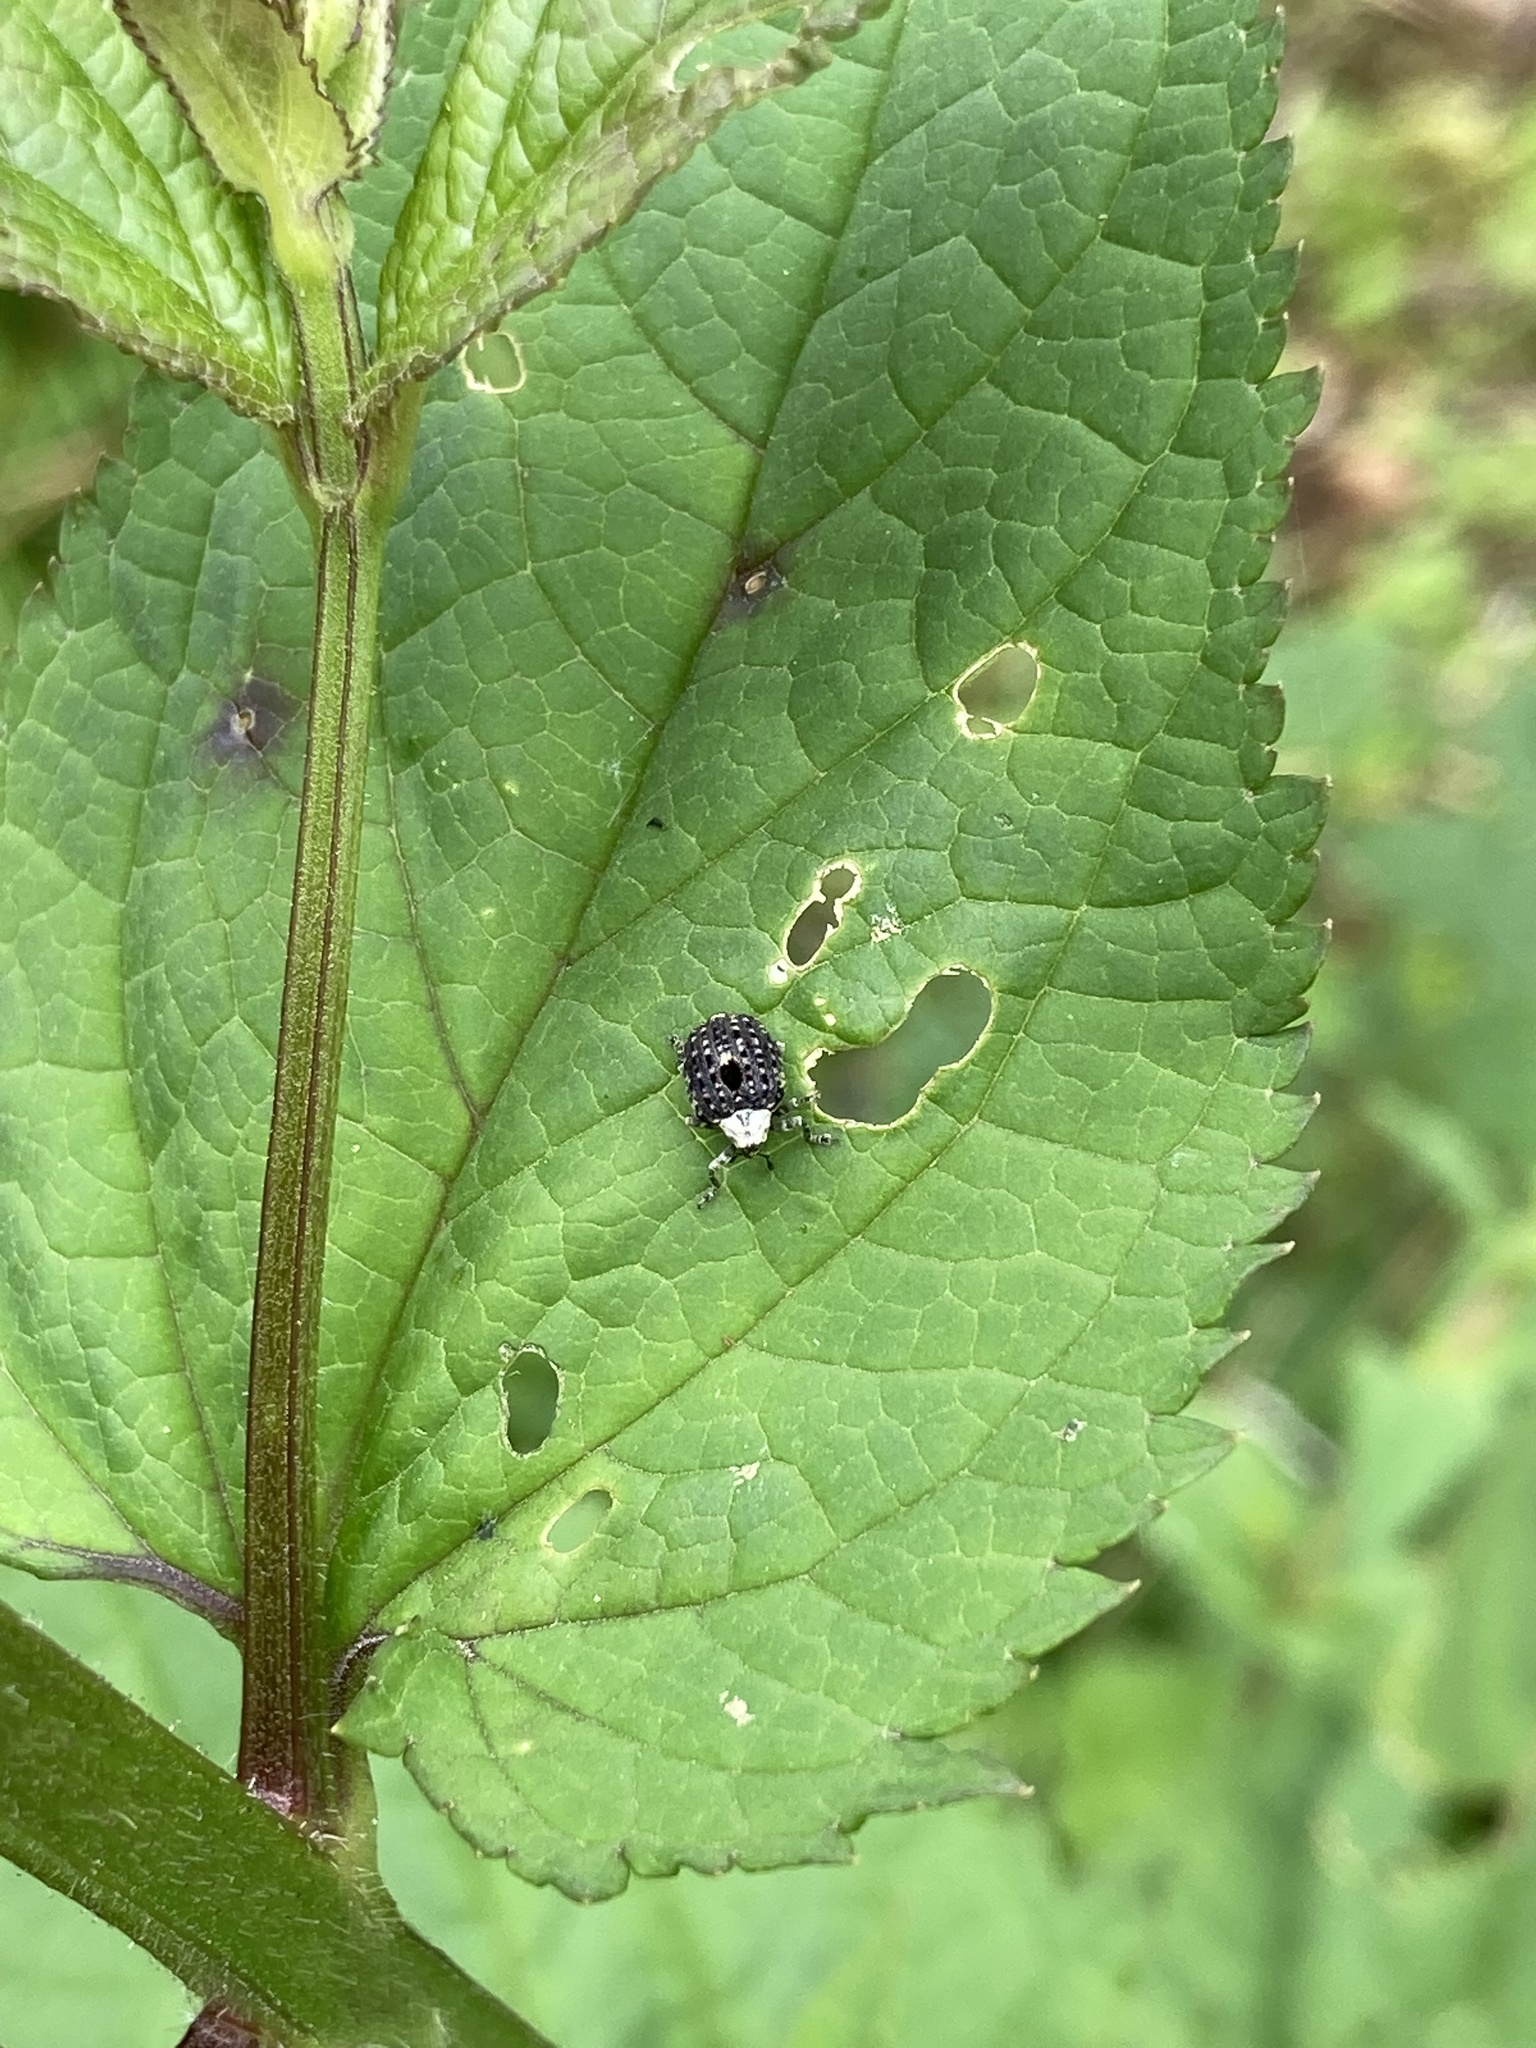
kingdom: Animalia
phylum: Arthropoda
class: Insecta
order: Coleoptera
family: Curculionidae
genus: Cionus
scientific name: Cionus scrophulariae
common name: Common figwort weevil
